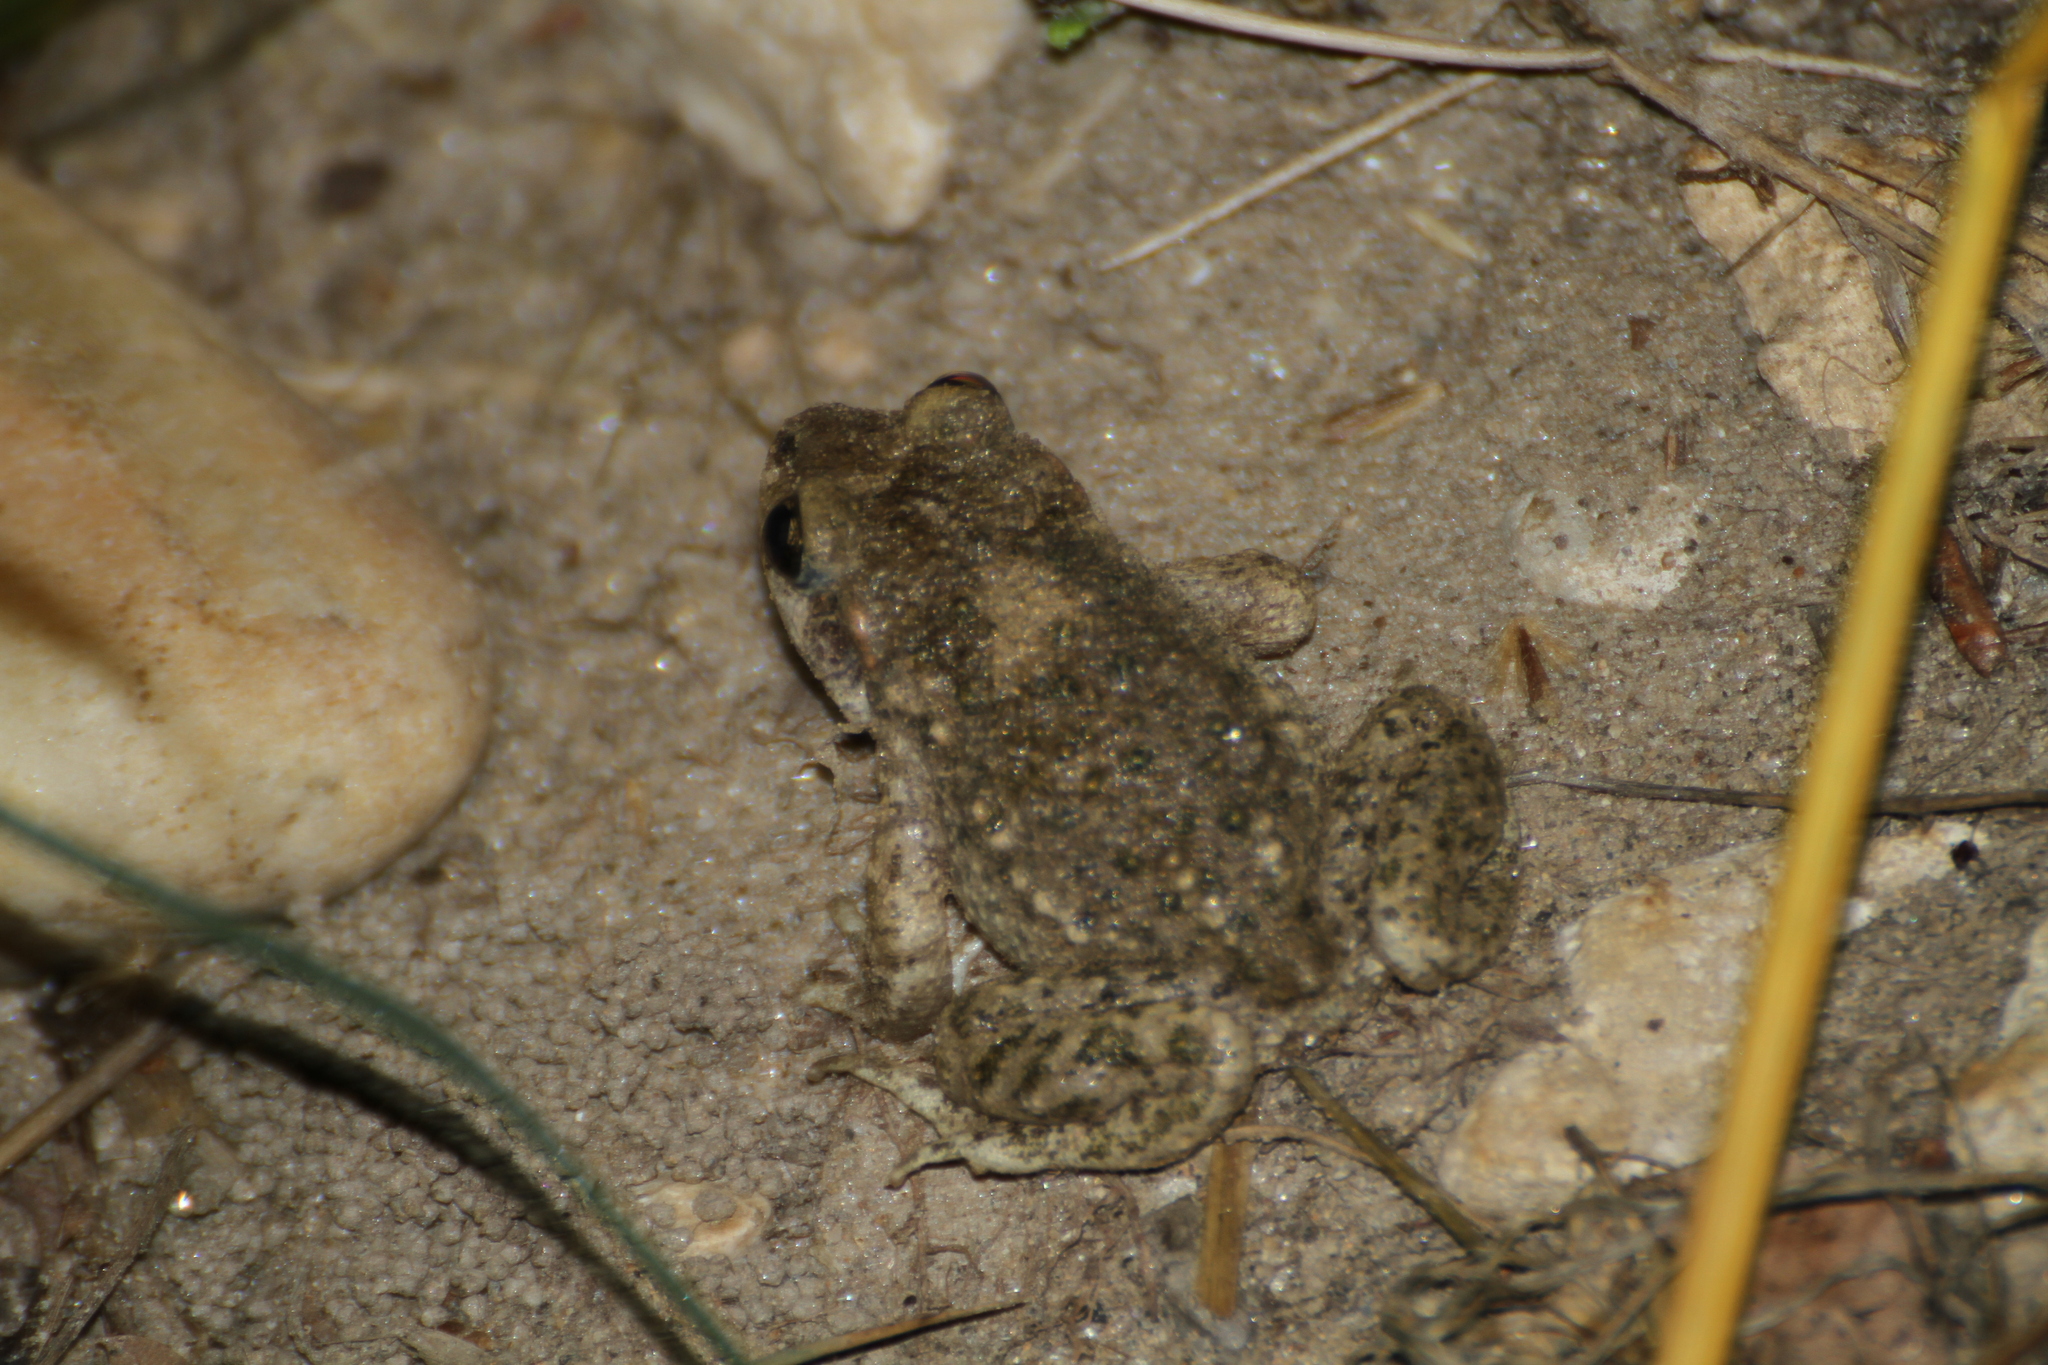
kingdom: Animalia
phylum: Chordata
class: Amphibia
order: Anura
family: Alytidae
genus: Alytes
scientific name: Alytes obstetricans
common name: Midwife toad
